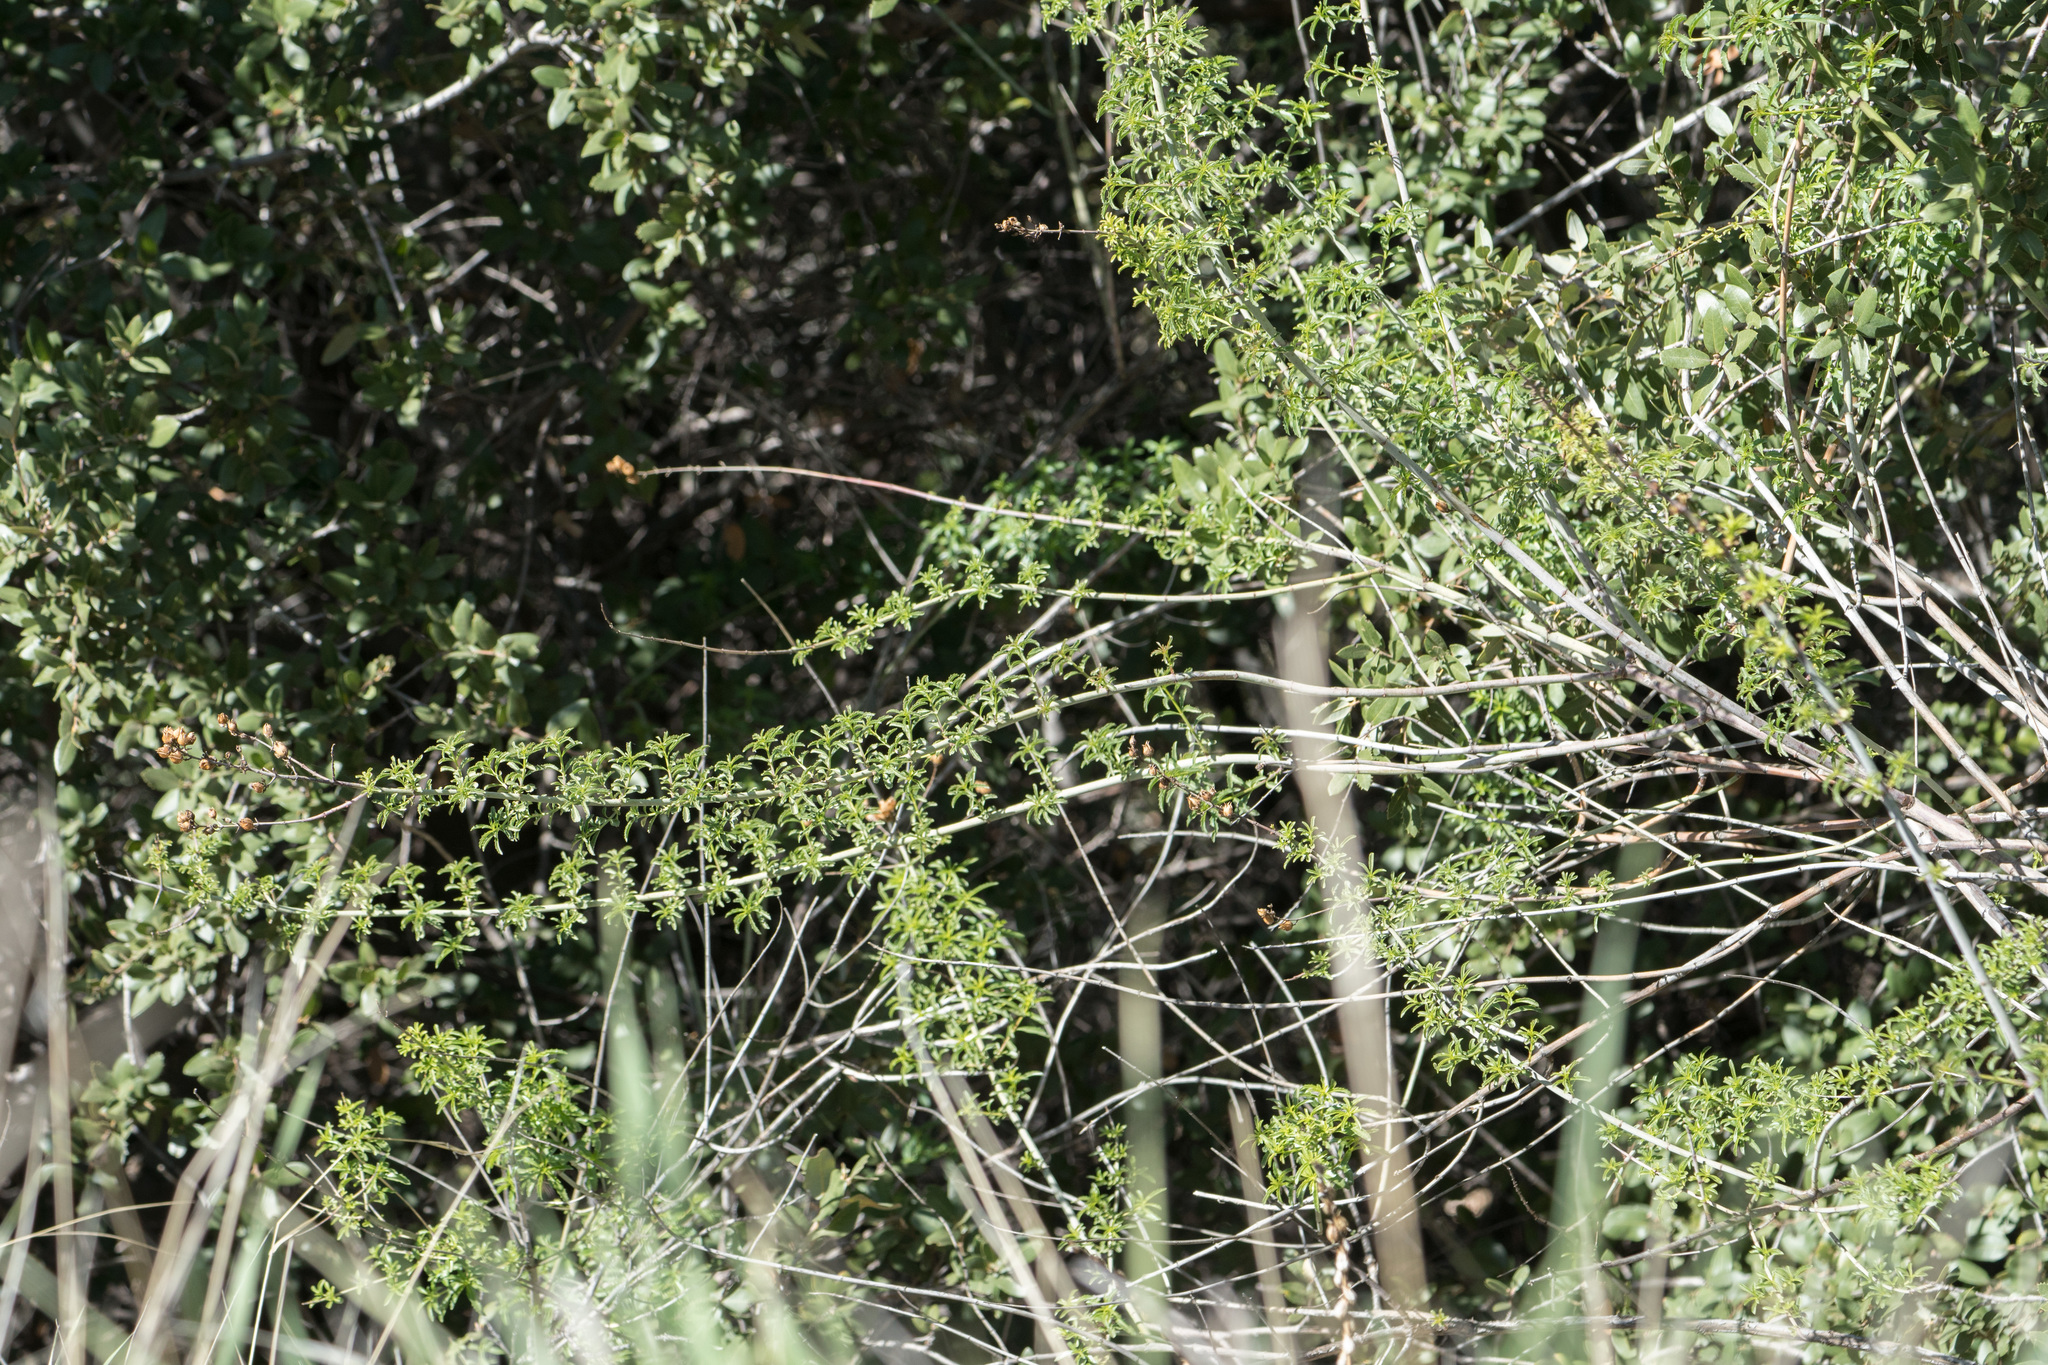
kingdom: Plantae
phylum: Tracheophyta
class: Magnoliopsida
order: Lamiales
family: Plantaginaceae
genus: Keckiella
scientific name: Keckiella ternata
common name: Scarlet keckiella
